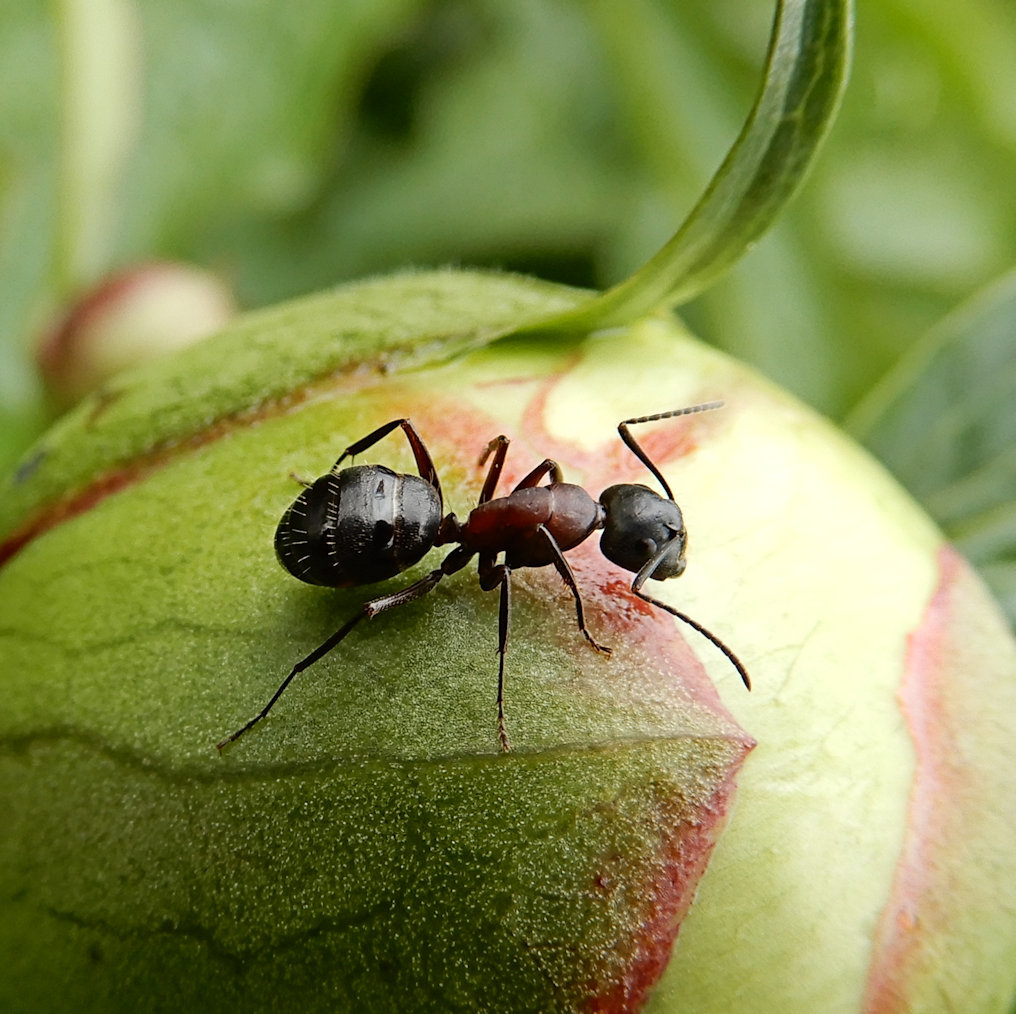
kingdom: Animalia
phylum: Arthropoda
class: Insecta
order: Hymenoptera
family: Formicidae
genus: Camponotus
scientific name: Camponotus novaeboracensis
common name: New york carpenter ant
